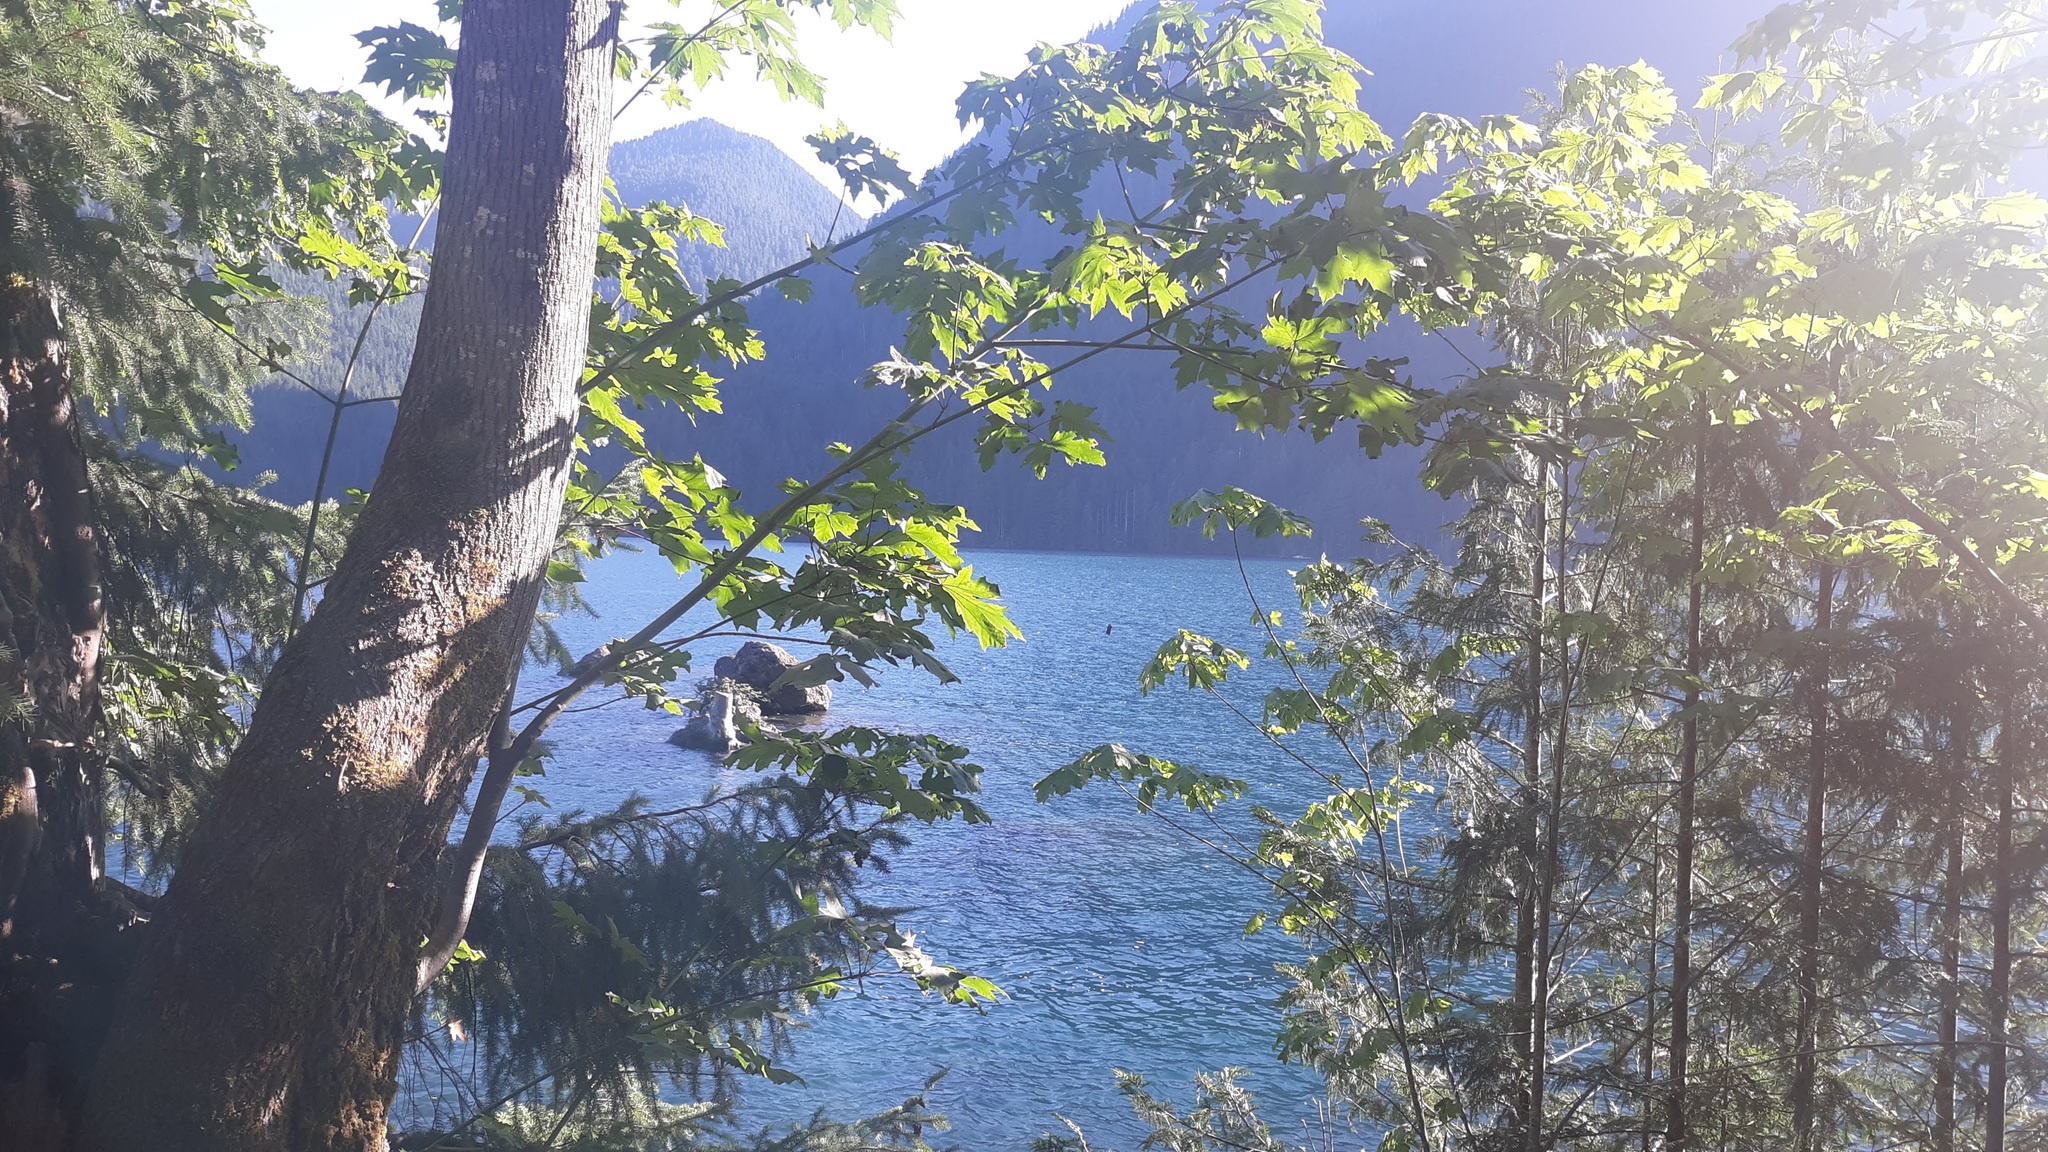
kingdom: Plantae
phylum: Tracheophyta
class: Magnoliopsida
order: Sapindales
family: Sapindaceae
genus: Acer
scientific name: Acer macrophyllum
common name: Oregon maple
